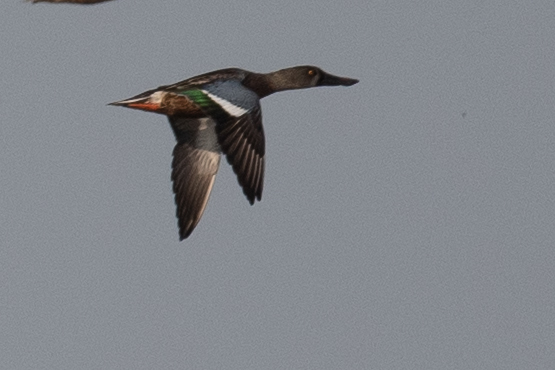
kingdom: Animalia
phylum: Chordata
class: Aves
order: Anseriformes
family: Anatidae
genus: Spatula
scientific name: Spatula clypeata
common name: Northern shoveler
